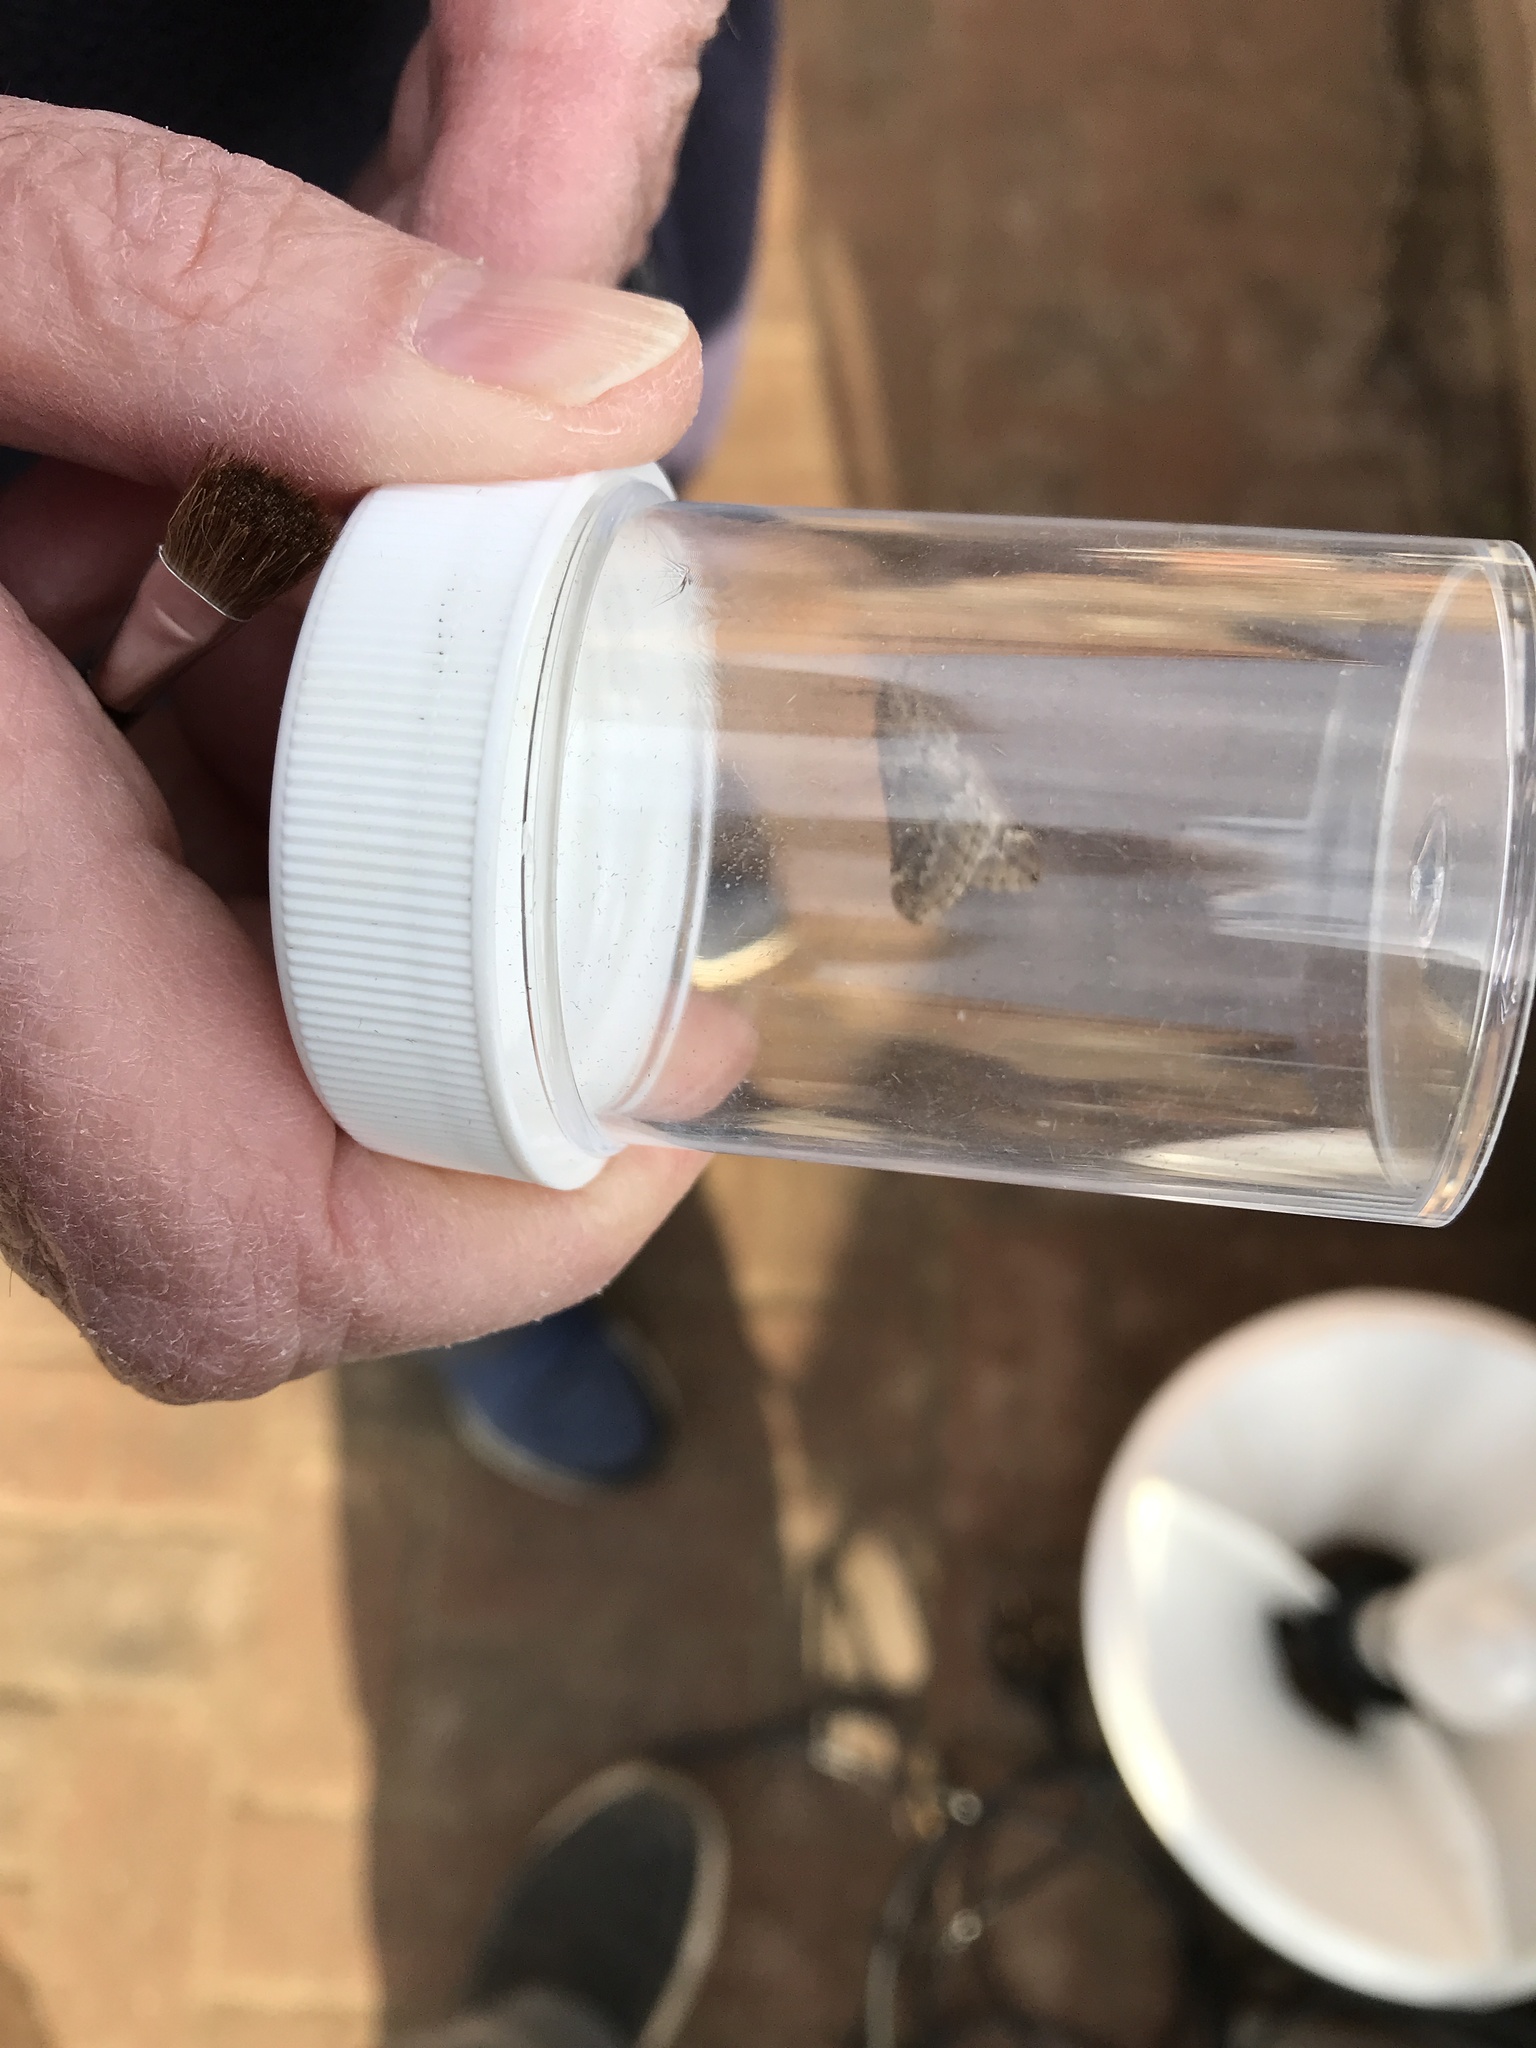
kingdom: Animalia
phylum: Arthropoda
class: Insecta
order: Lepidoptera
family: Geometridae
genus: Alsophila
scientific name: Alsophila aescularia
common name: March moth
